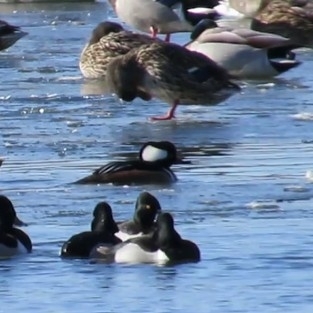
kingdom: Animalia
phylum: Chordata
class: Aves
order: Anseriformes
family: Anatidae
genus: Lophodytes
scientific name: Lophodytes cucullatus
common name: Hooded merganser
